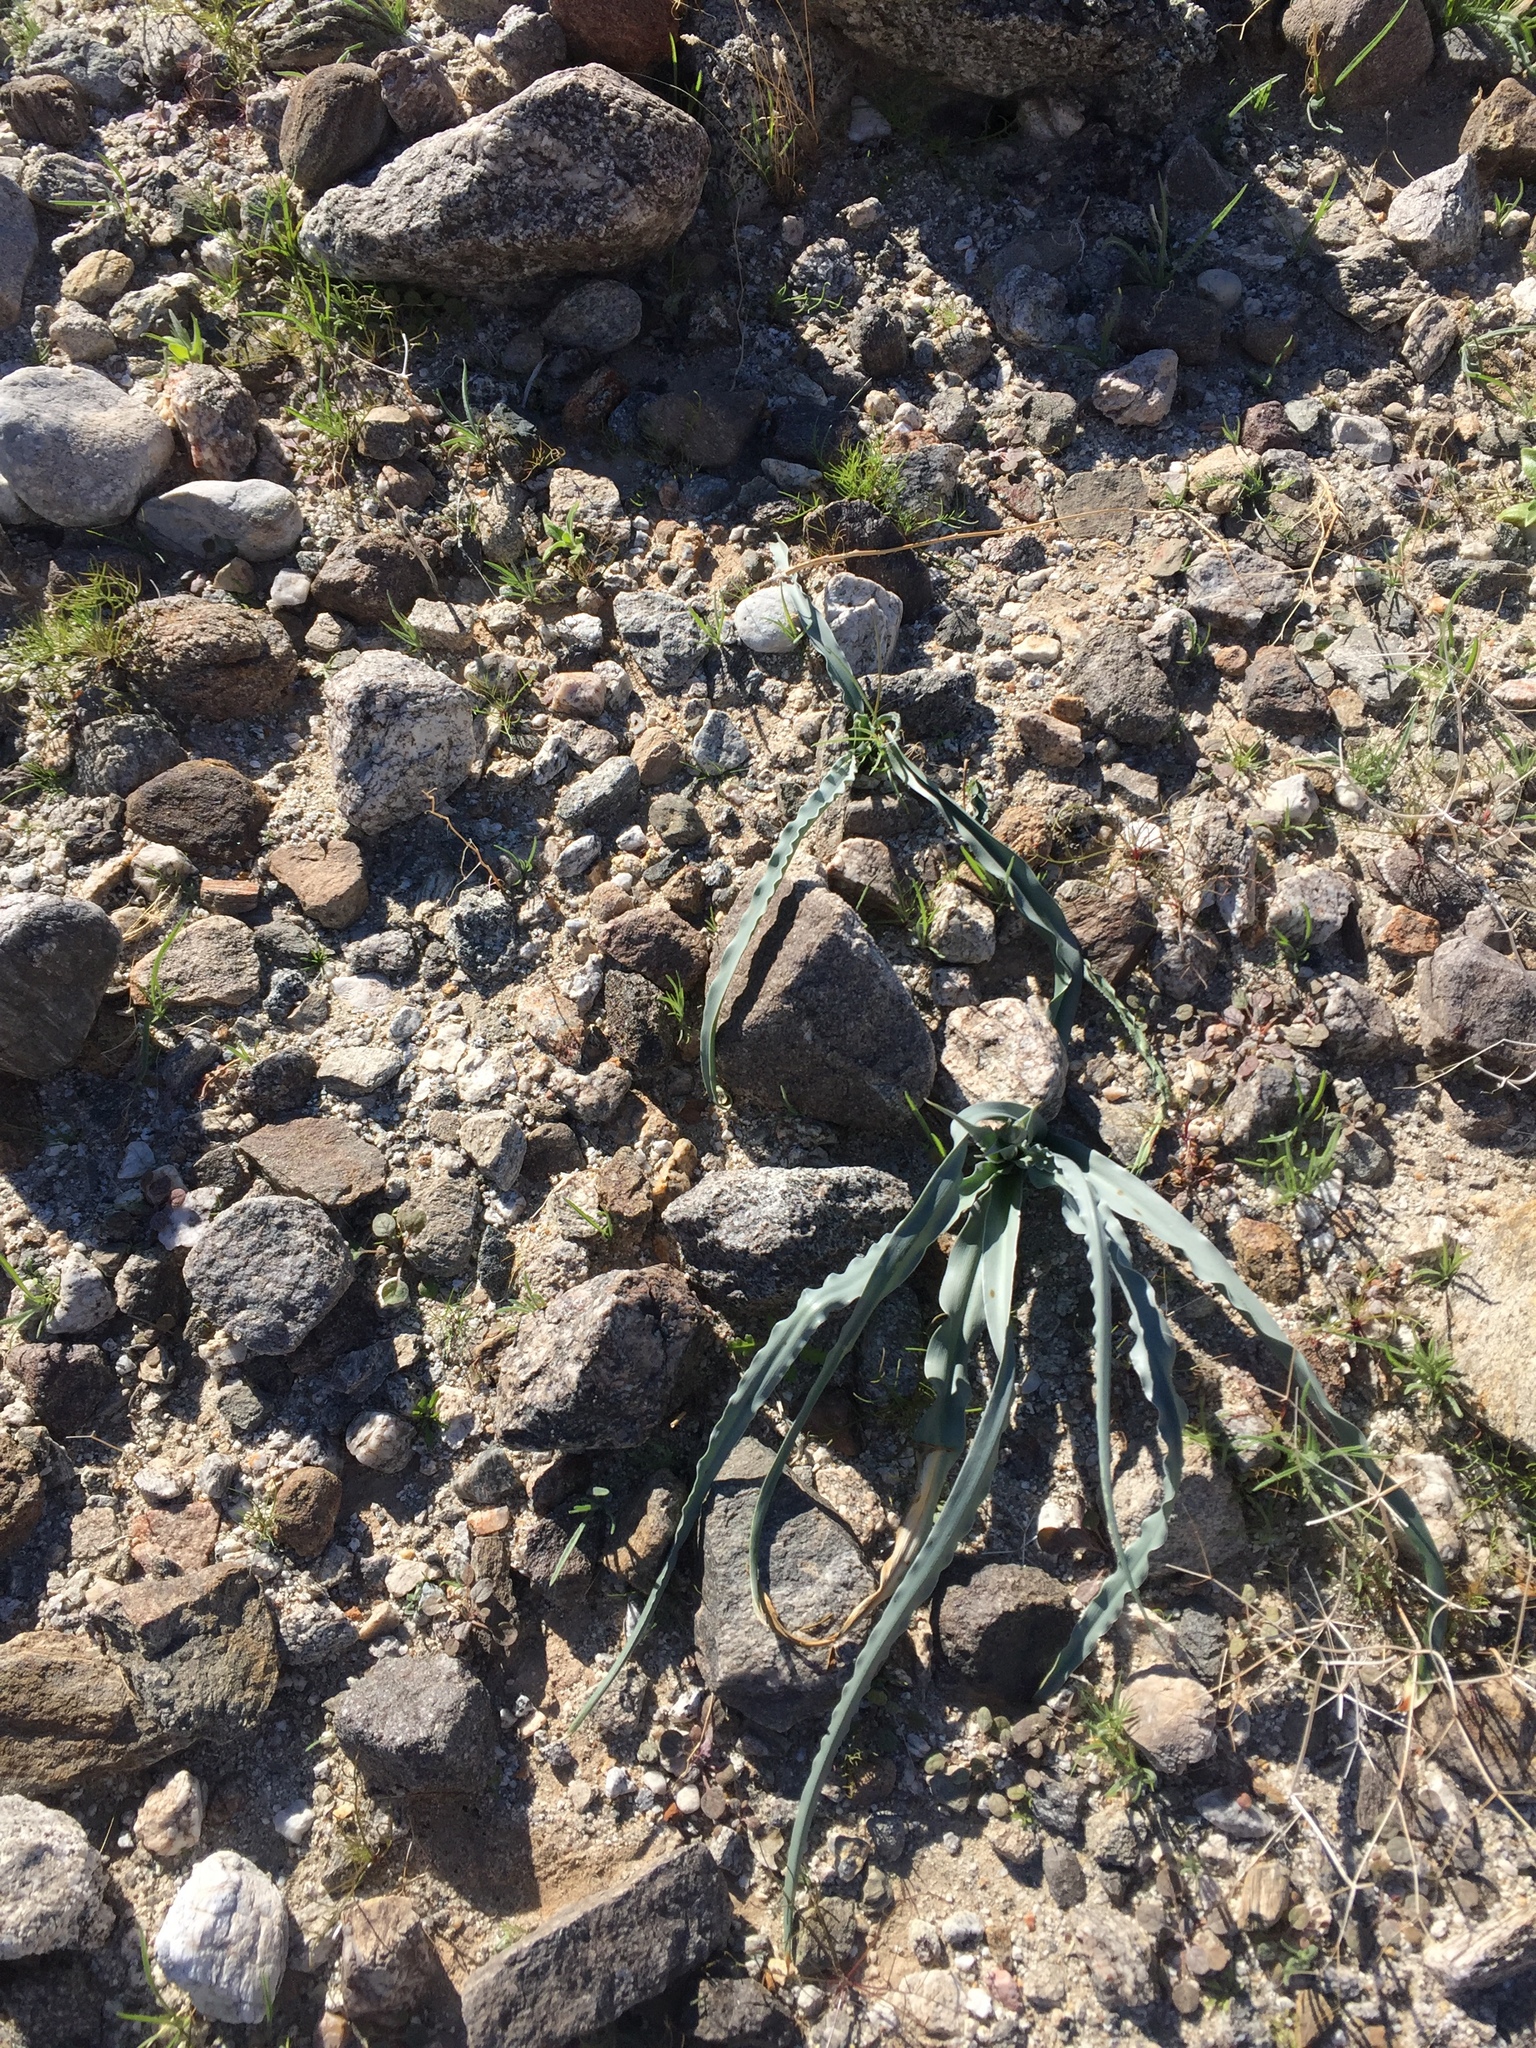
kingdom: Plantae
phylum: Tracheophyta
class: Liliopsida
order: Asparagales
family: Asparagaceae
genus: Hesperocallis
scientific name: Hesperocallis undulata
